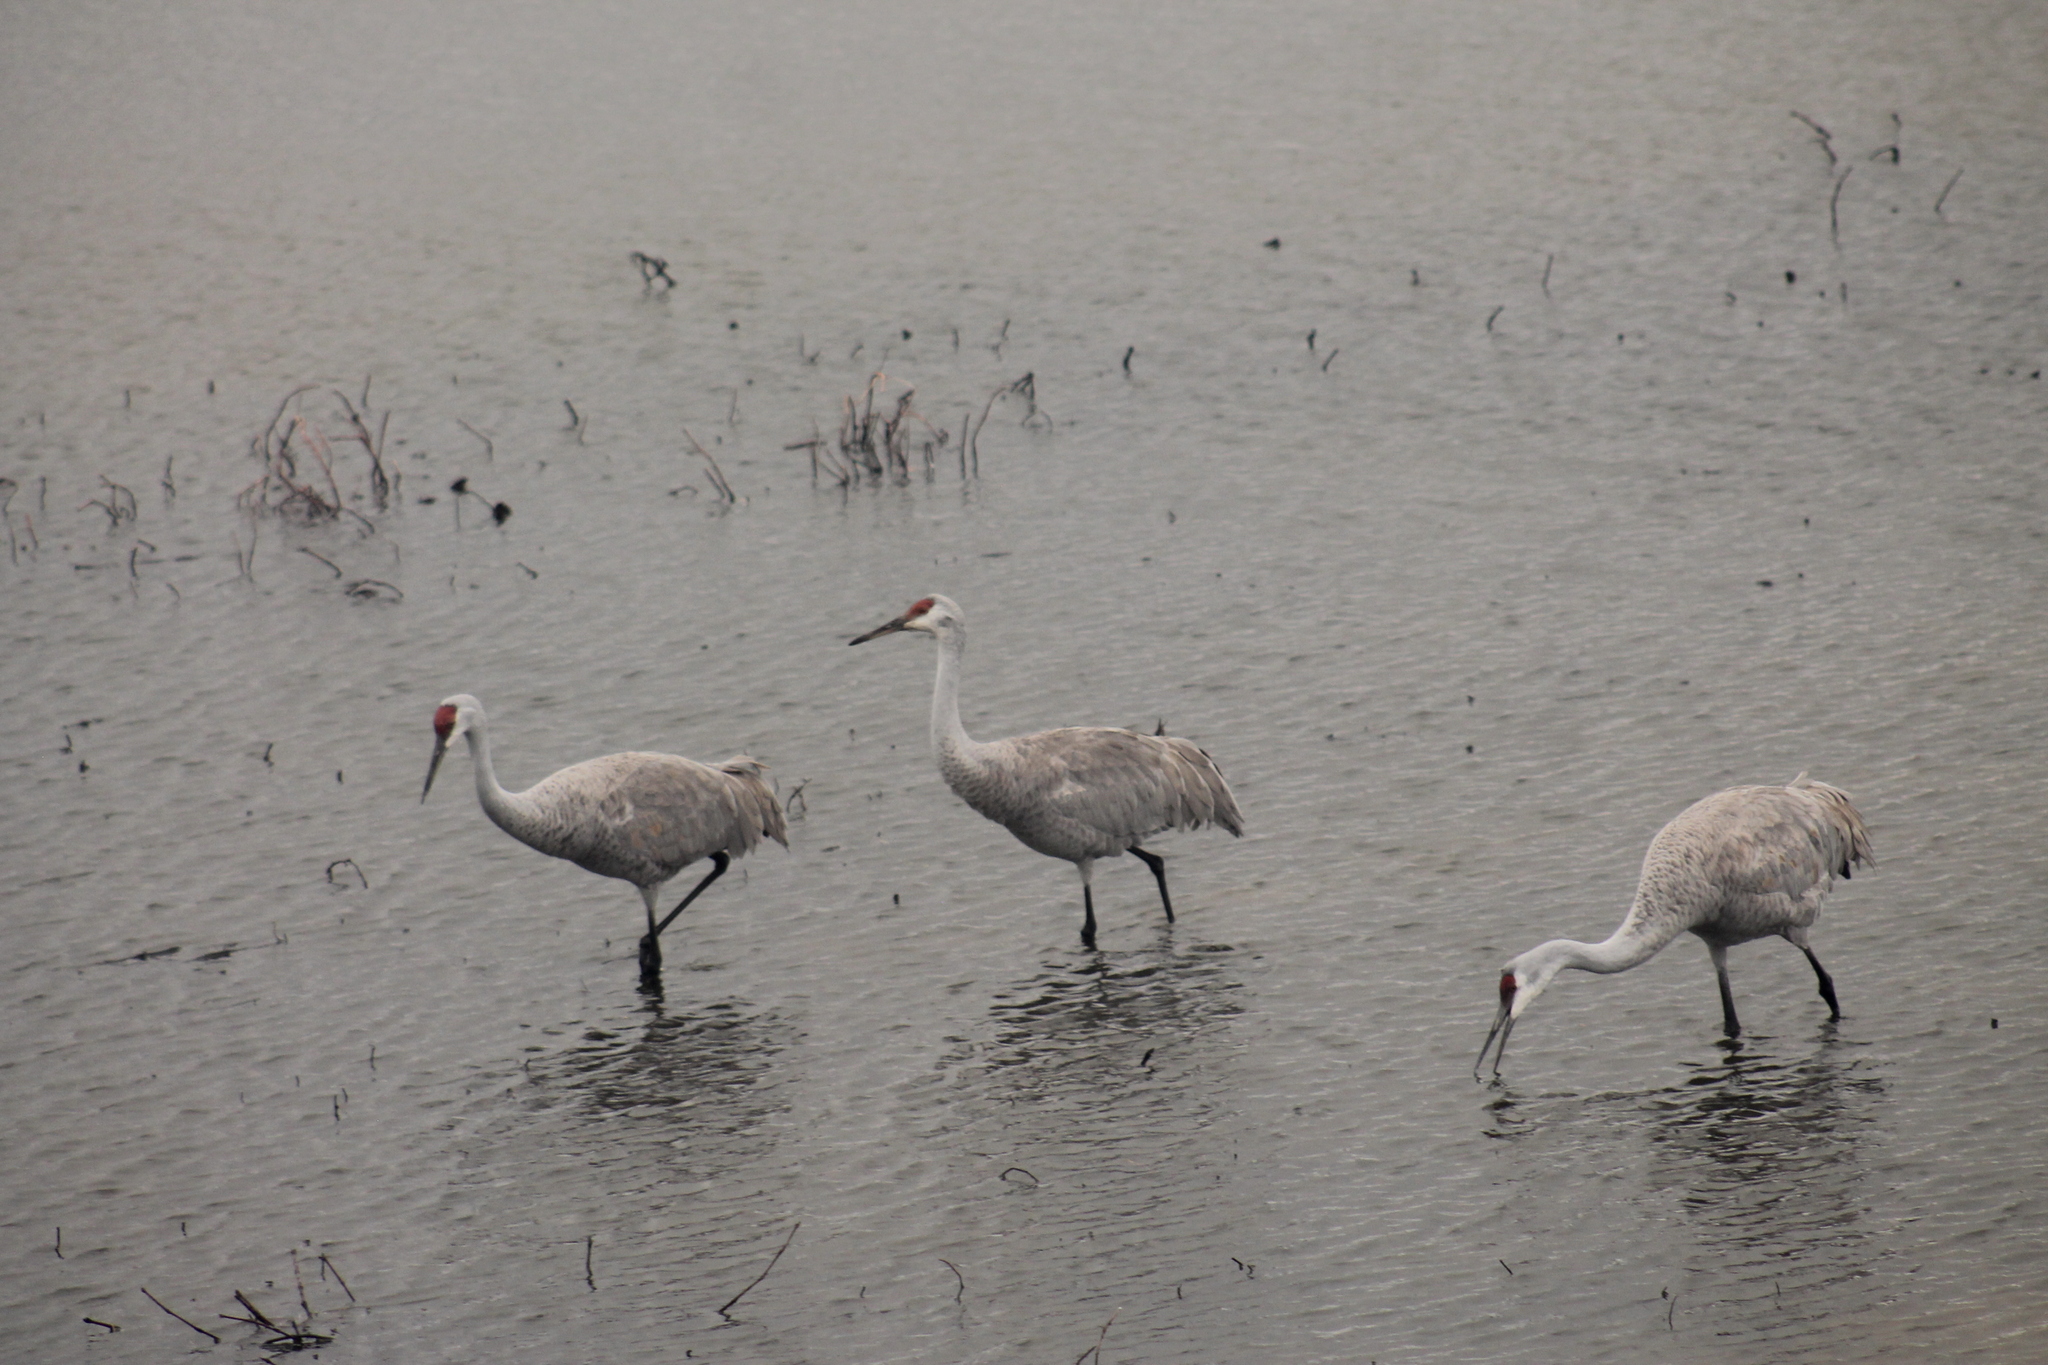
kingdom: Animalia
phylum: Chordata
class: Aves
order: Gruiformes
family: Gruidae
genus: Grus
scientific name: Grus canadensis
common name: Sandhill crane
